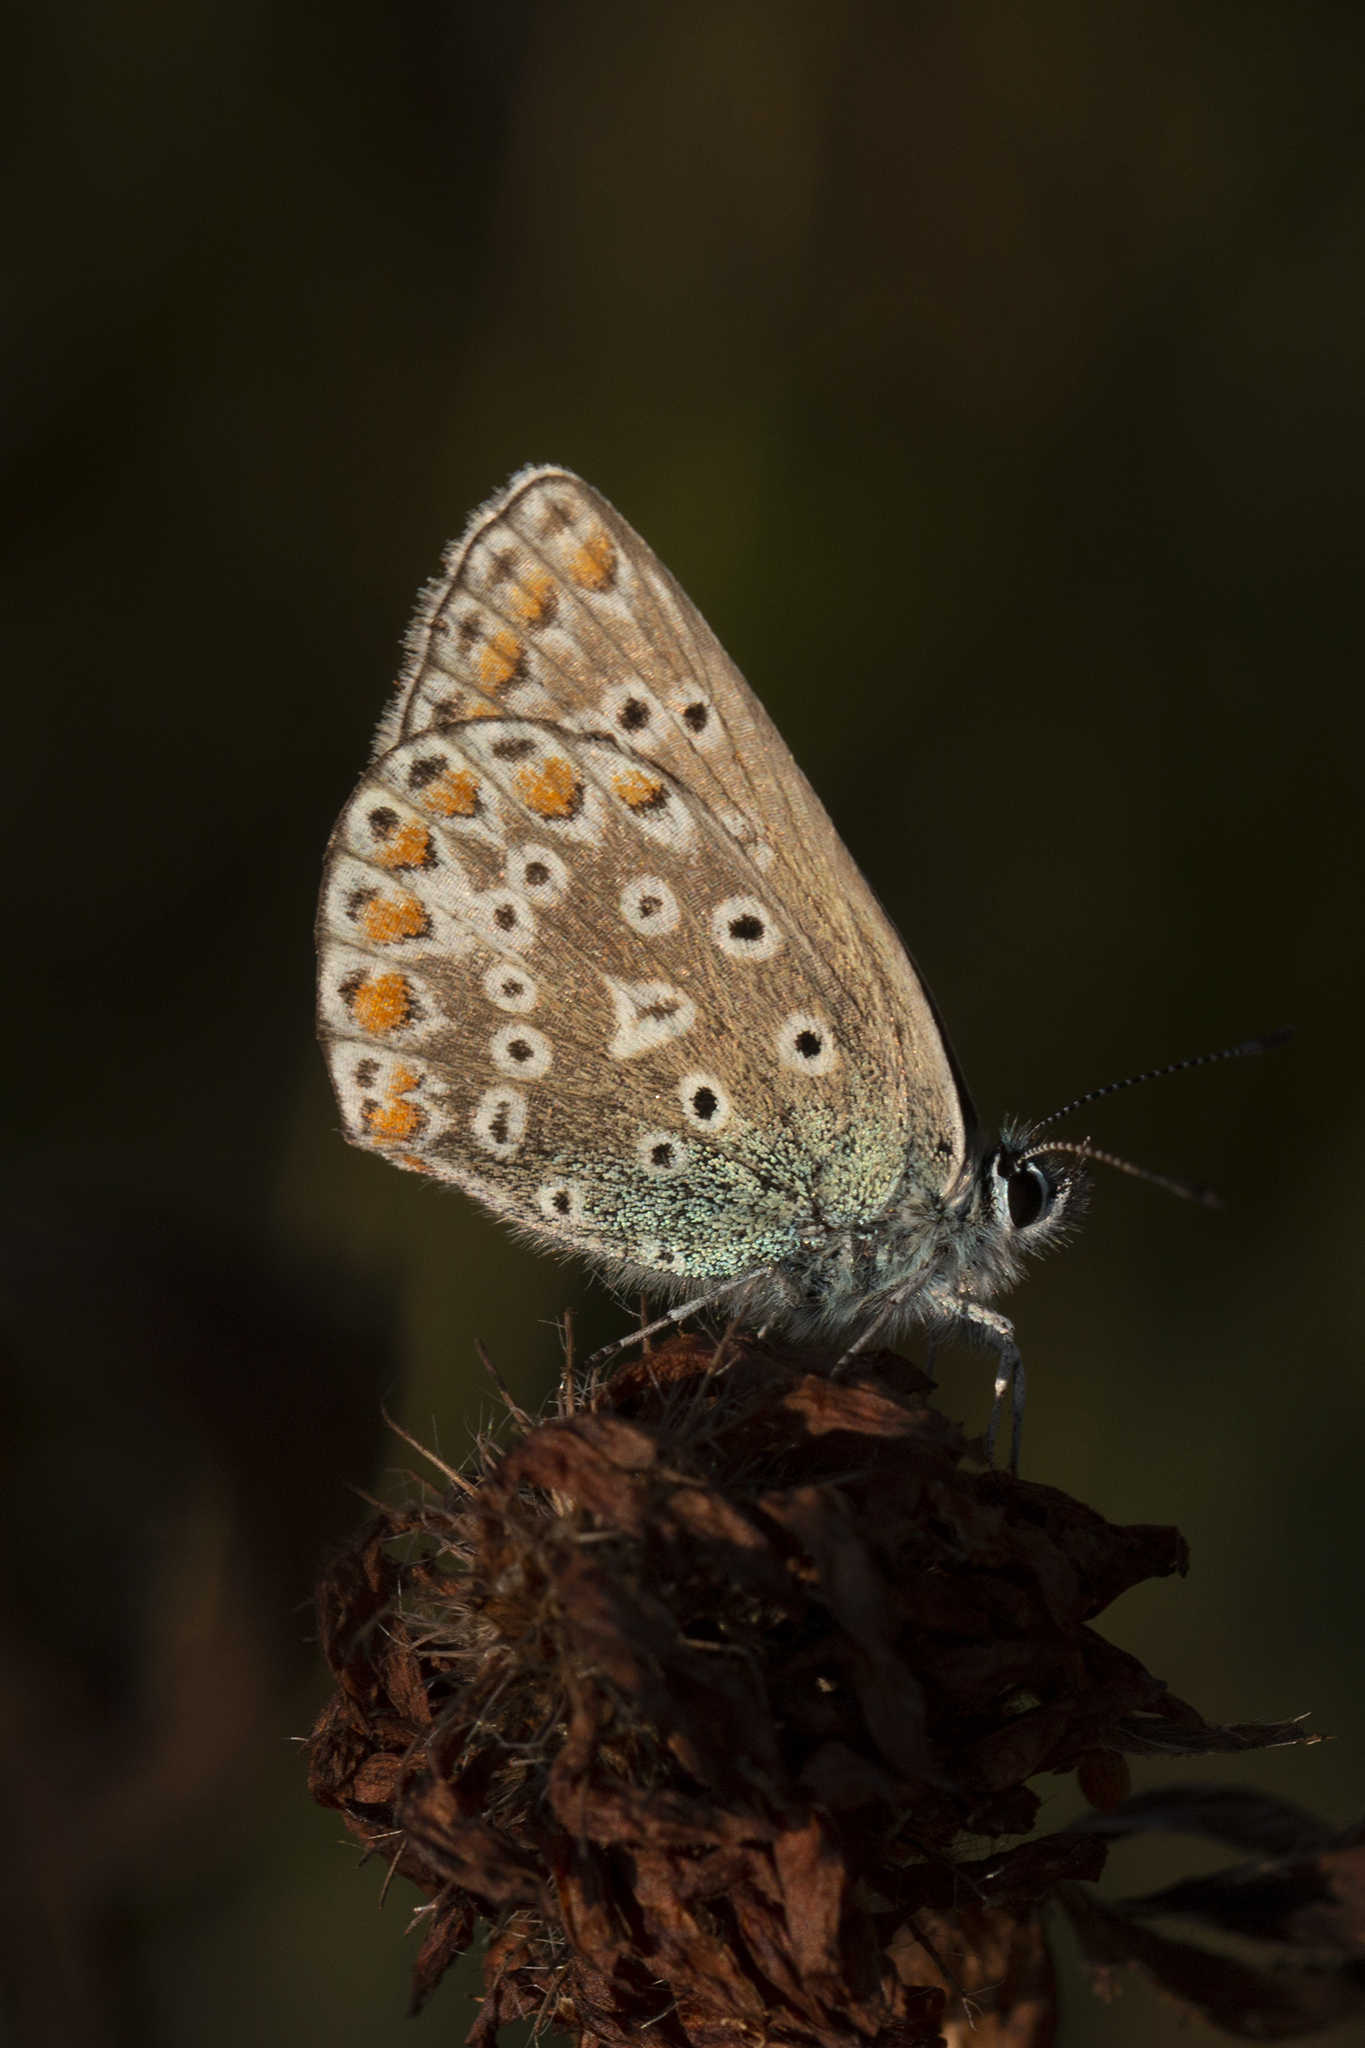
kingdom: Animalia
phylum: Arthropoda
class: Insecta
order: Lepidoptera
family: Lycaenidae
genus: Polyommatus
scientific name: Polyommatus icarus
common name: Common blue
